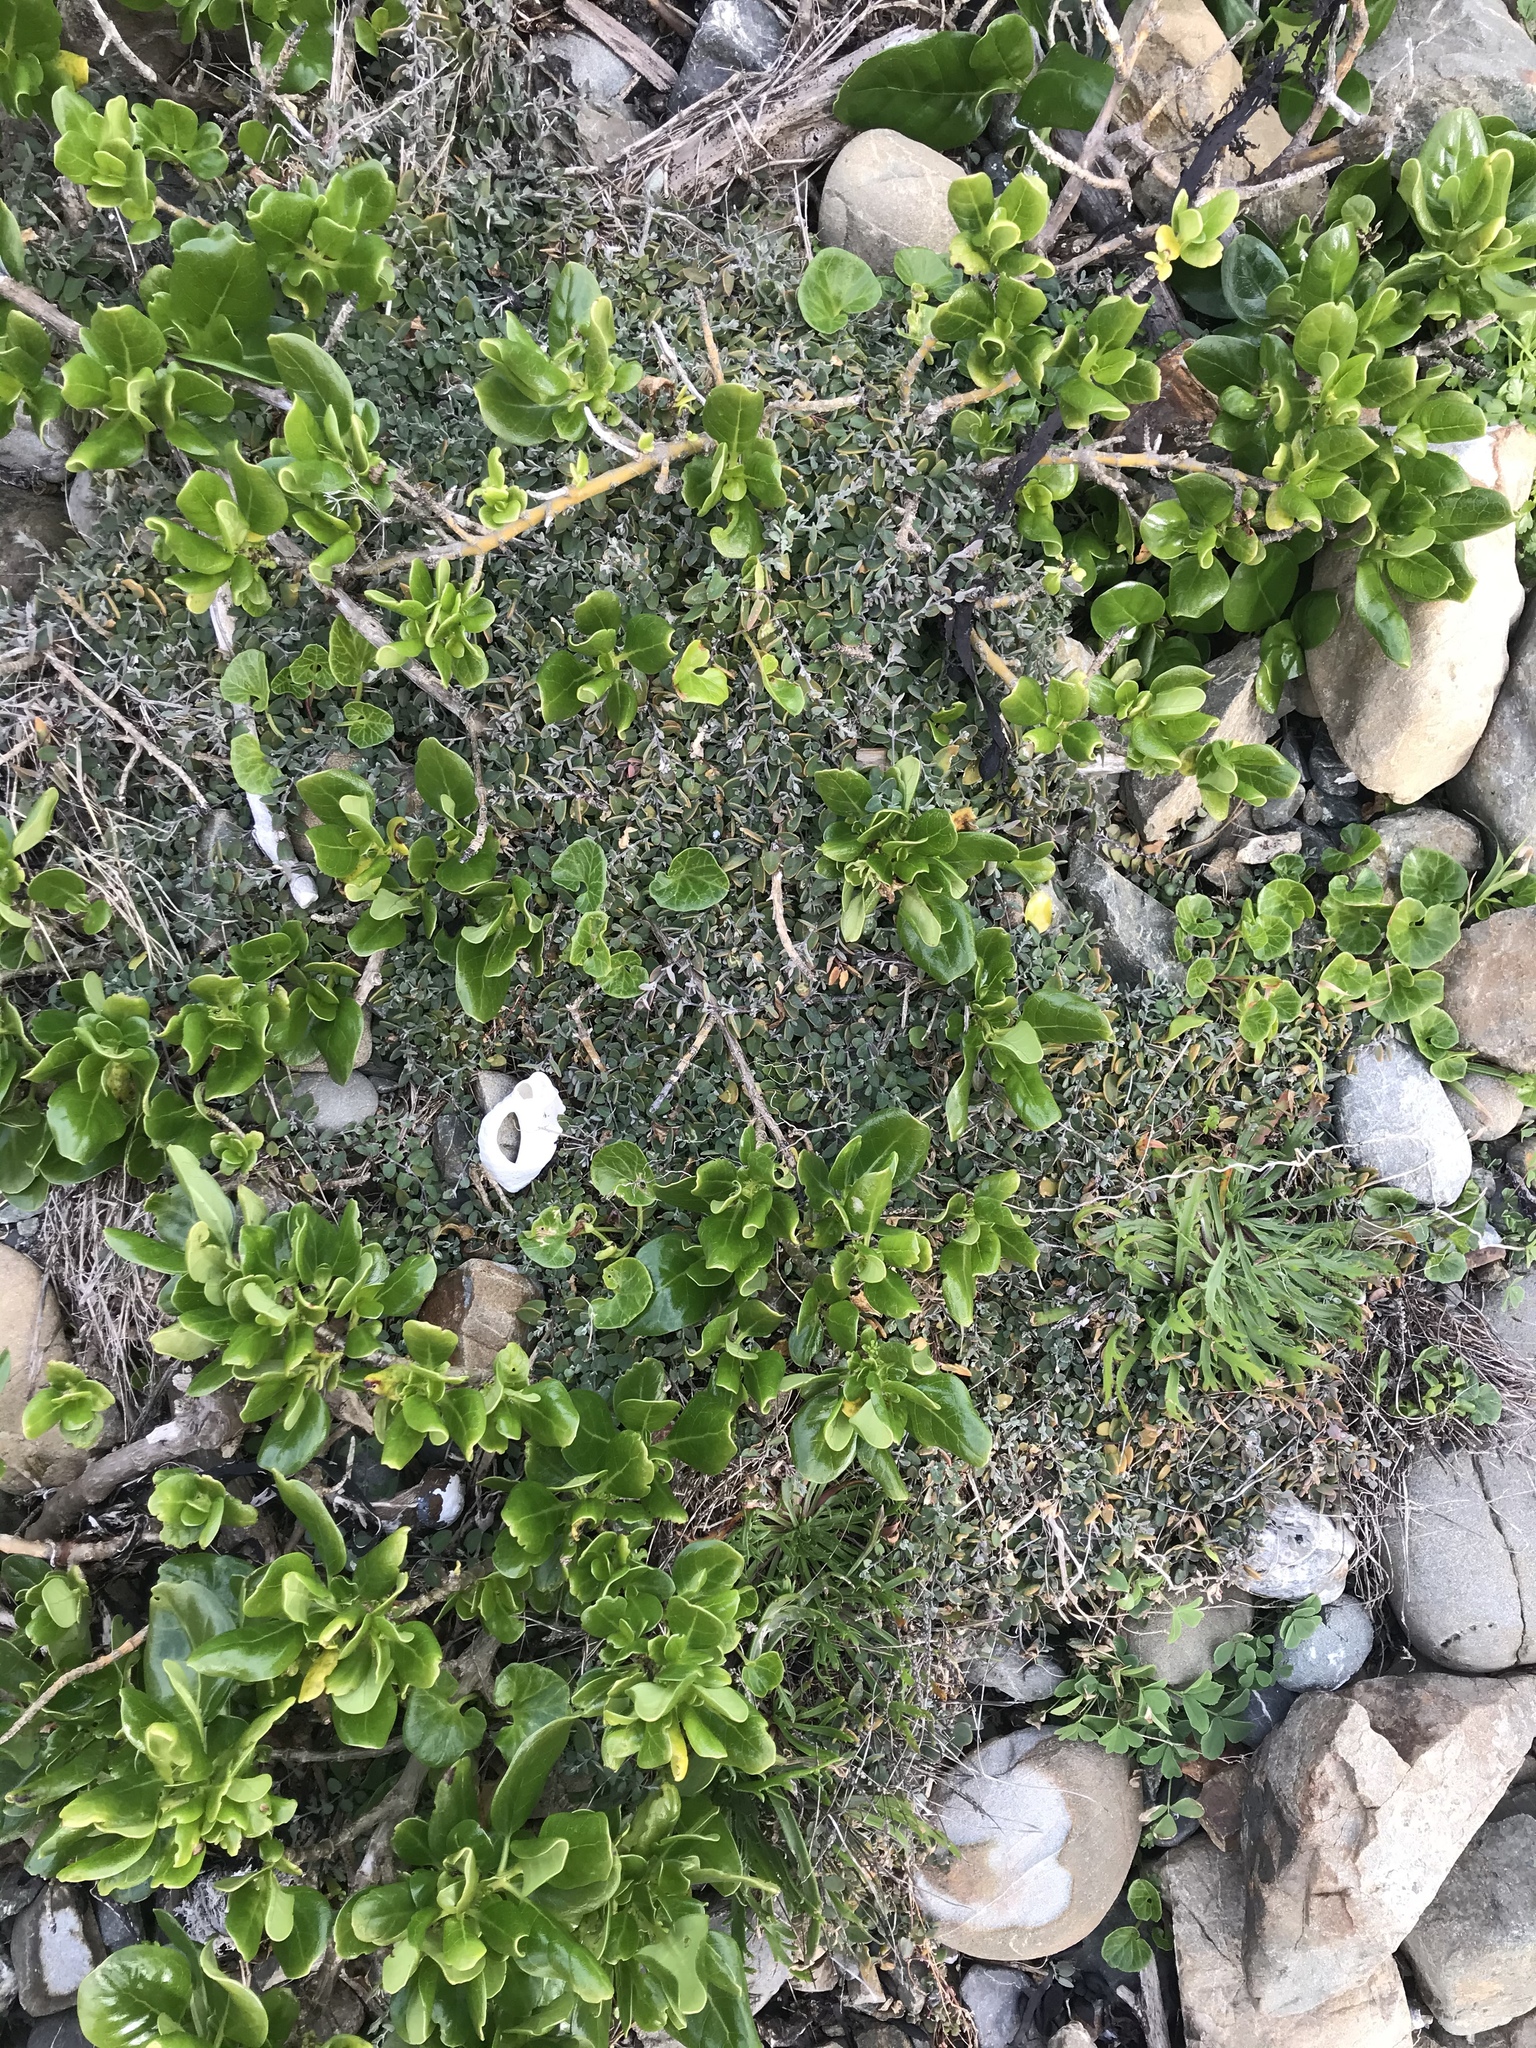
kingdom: Plantae
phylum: Tracheophyta
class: Magnoliopsida
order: Gentianales
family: Rubiaceae
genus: Coprosma
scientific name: Coprosma repens
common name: Tree bedstraw
